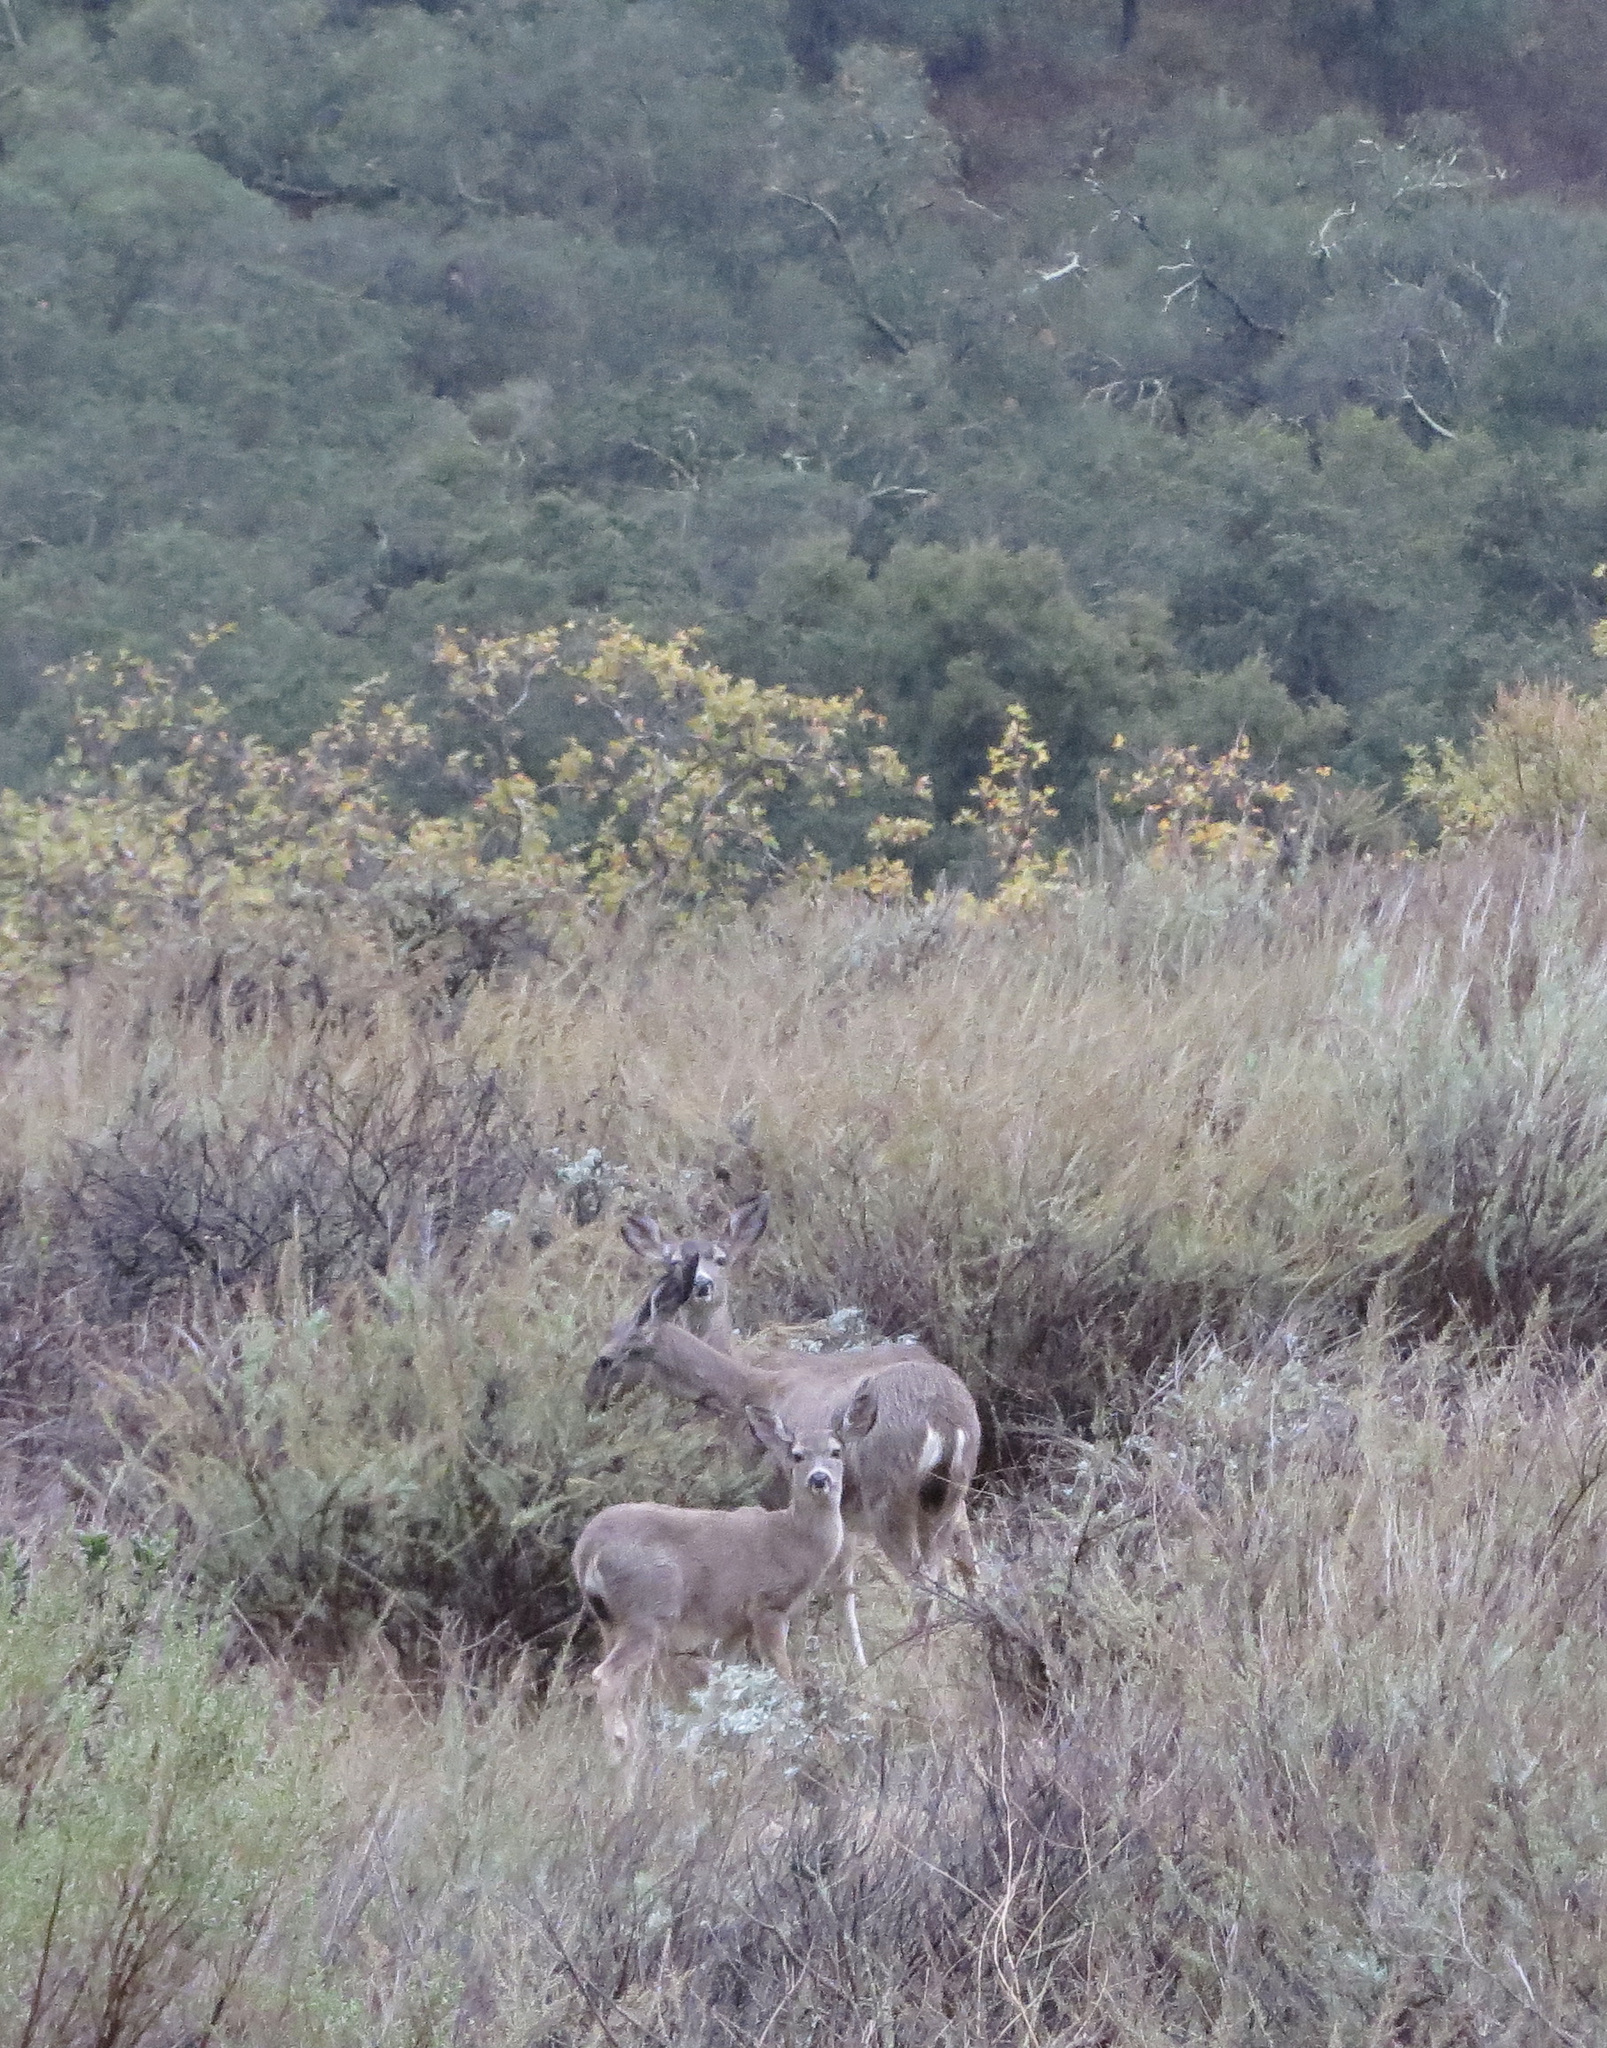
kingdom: Animalia
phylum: Chordata
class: Mammalia
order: Artiodactyla
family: Cervidae
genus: Odocoileus
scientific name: Odocoileus hemionus
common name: Mule deer
